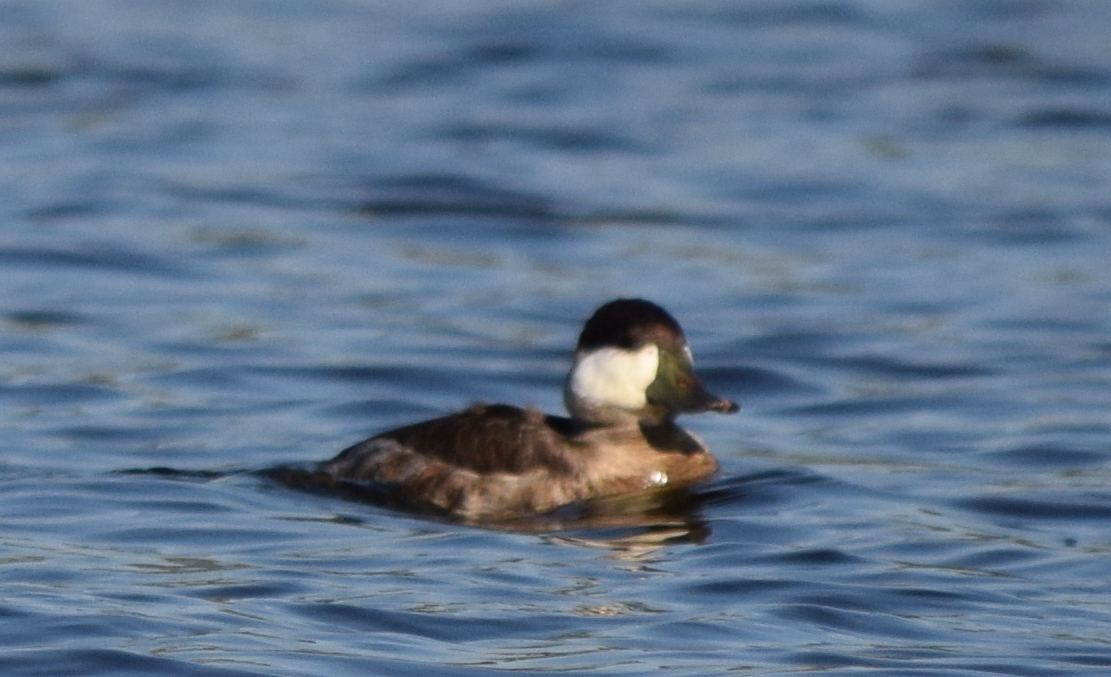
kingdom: Animalia
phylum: Chordata
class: Aves
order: Anseriformes
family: Anatidae
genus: Oxyura
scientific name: Oxyura jamaicensis
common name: Ruddy duck
